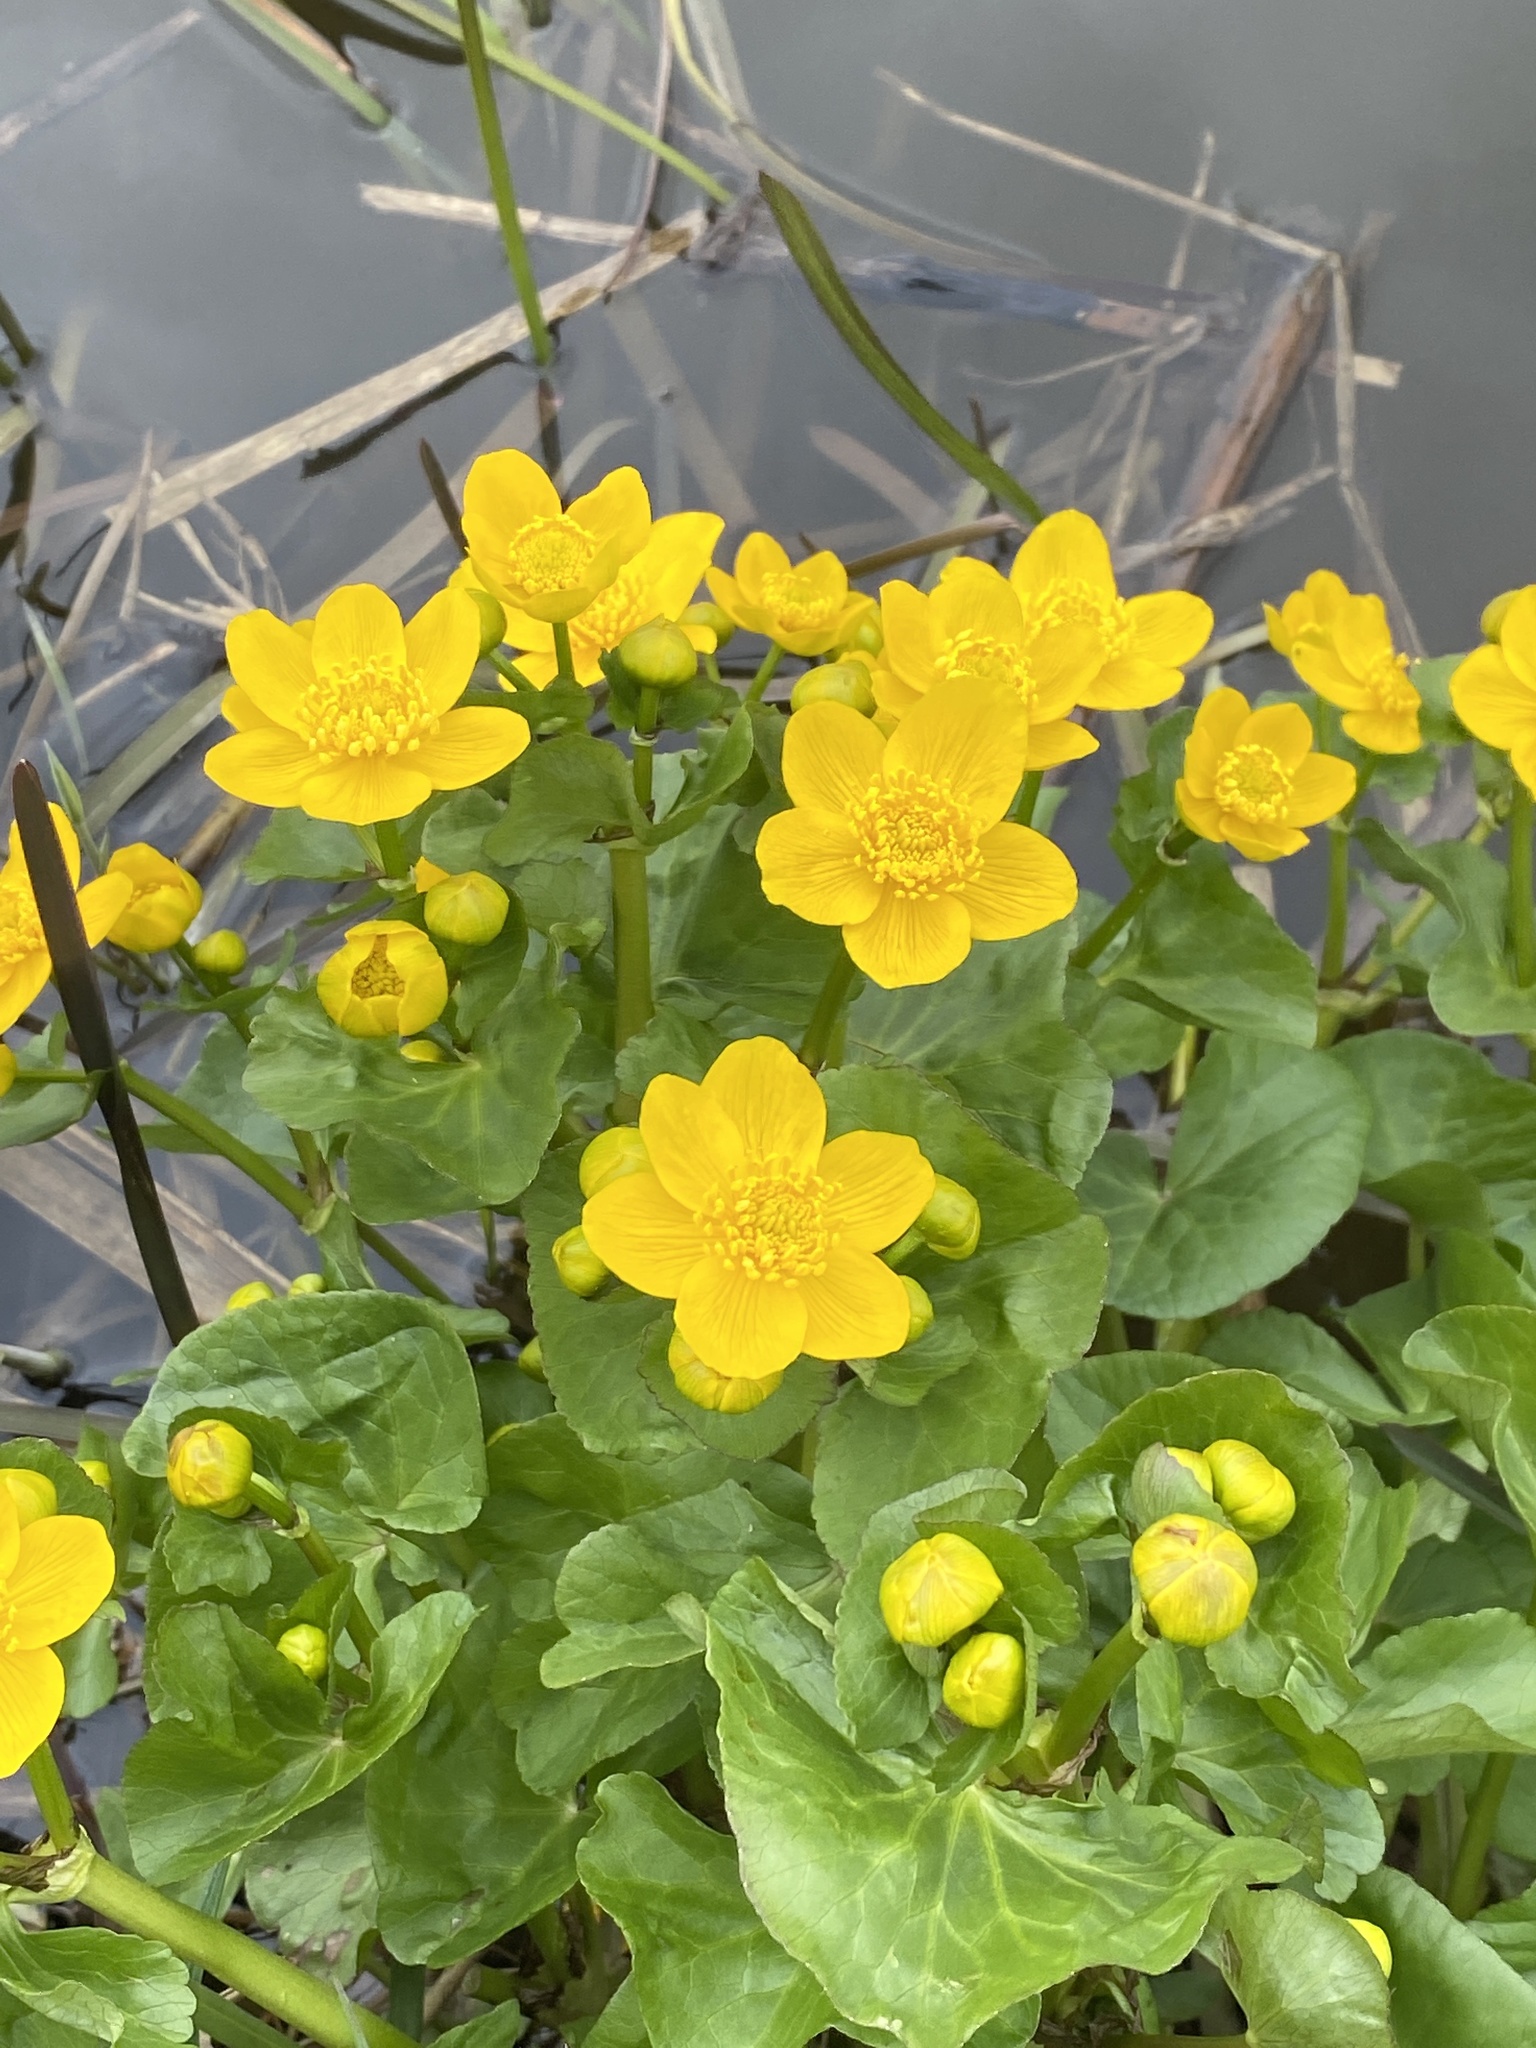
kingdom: Plantae
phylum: Tracheophyta
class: Magnoliopsida
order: Ranunculales
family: Ranunculaceae
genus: Caltha
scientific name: Caltha palustris
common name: Marsh marigold
